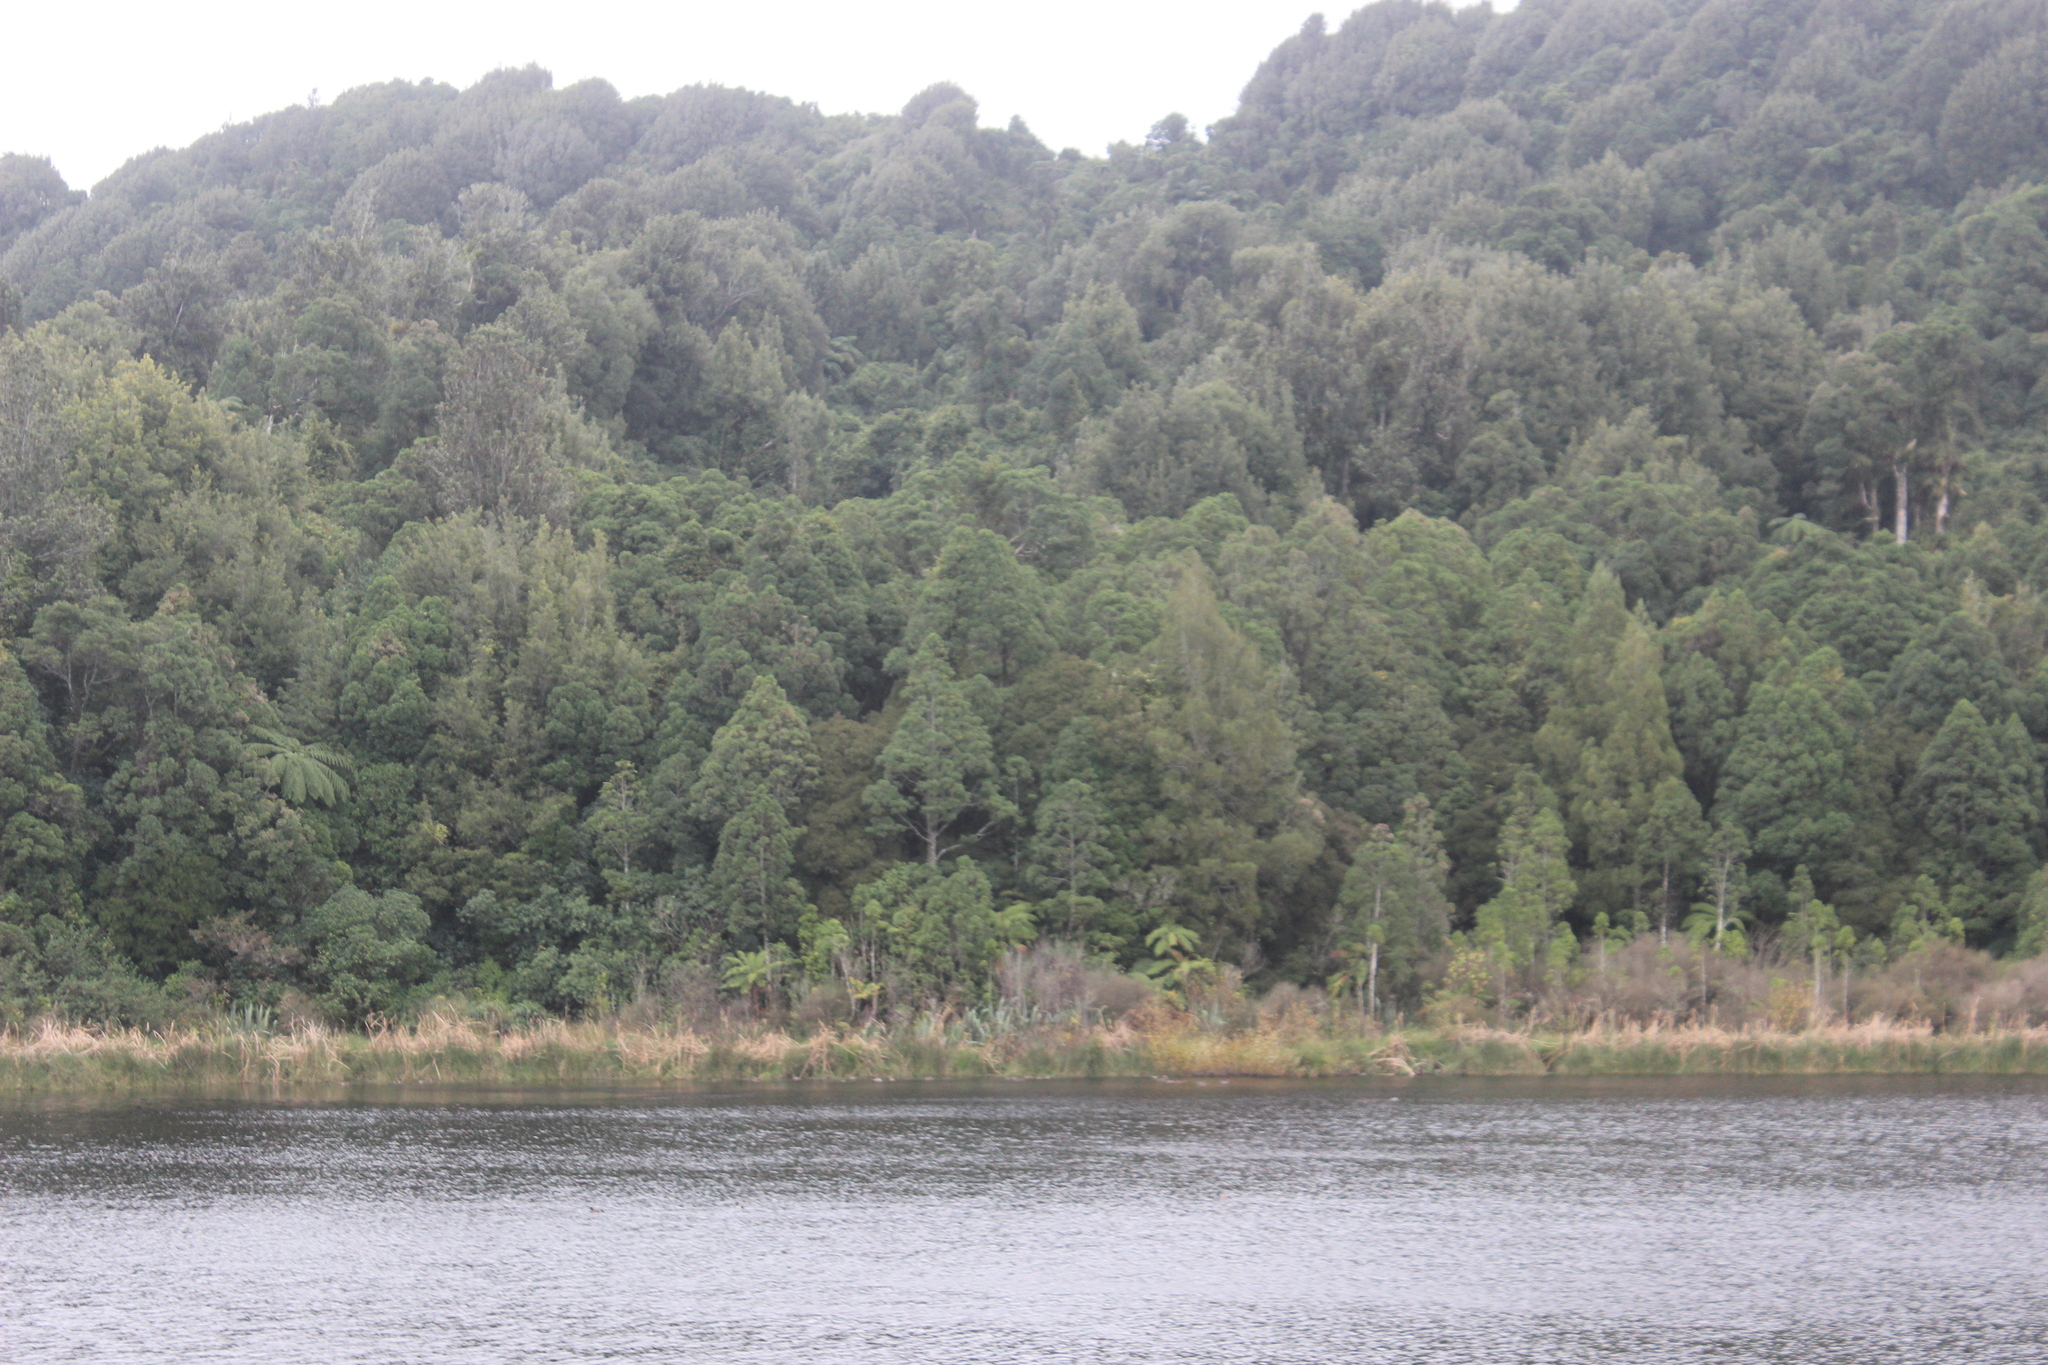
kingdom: Plantae
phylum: Tracheophyta
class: Pinopsida
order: Pinales
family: Podocarpaceae
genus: Dacrycarpus
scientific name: Dacrycarpus dacrydioides
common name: White pine
